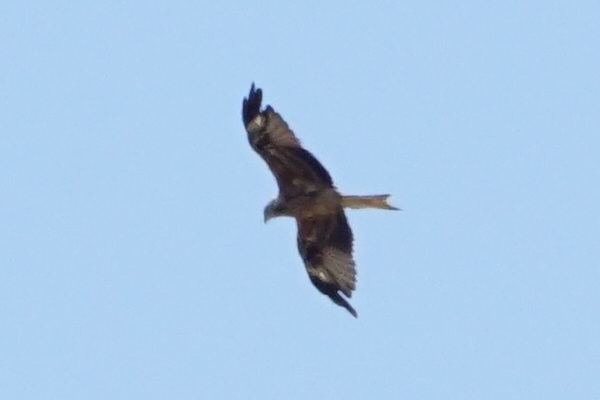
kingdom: Animalia
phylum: Chordata
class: Aves
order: Accipitriformes
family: Accipitridae
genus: Milvus
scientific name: Milvus milvus
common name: Red kite
